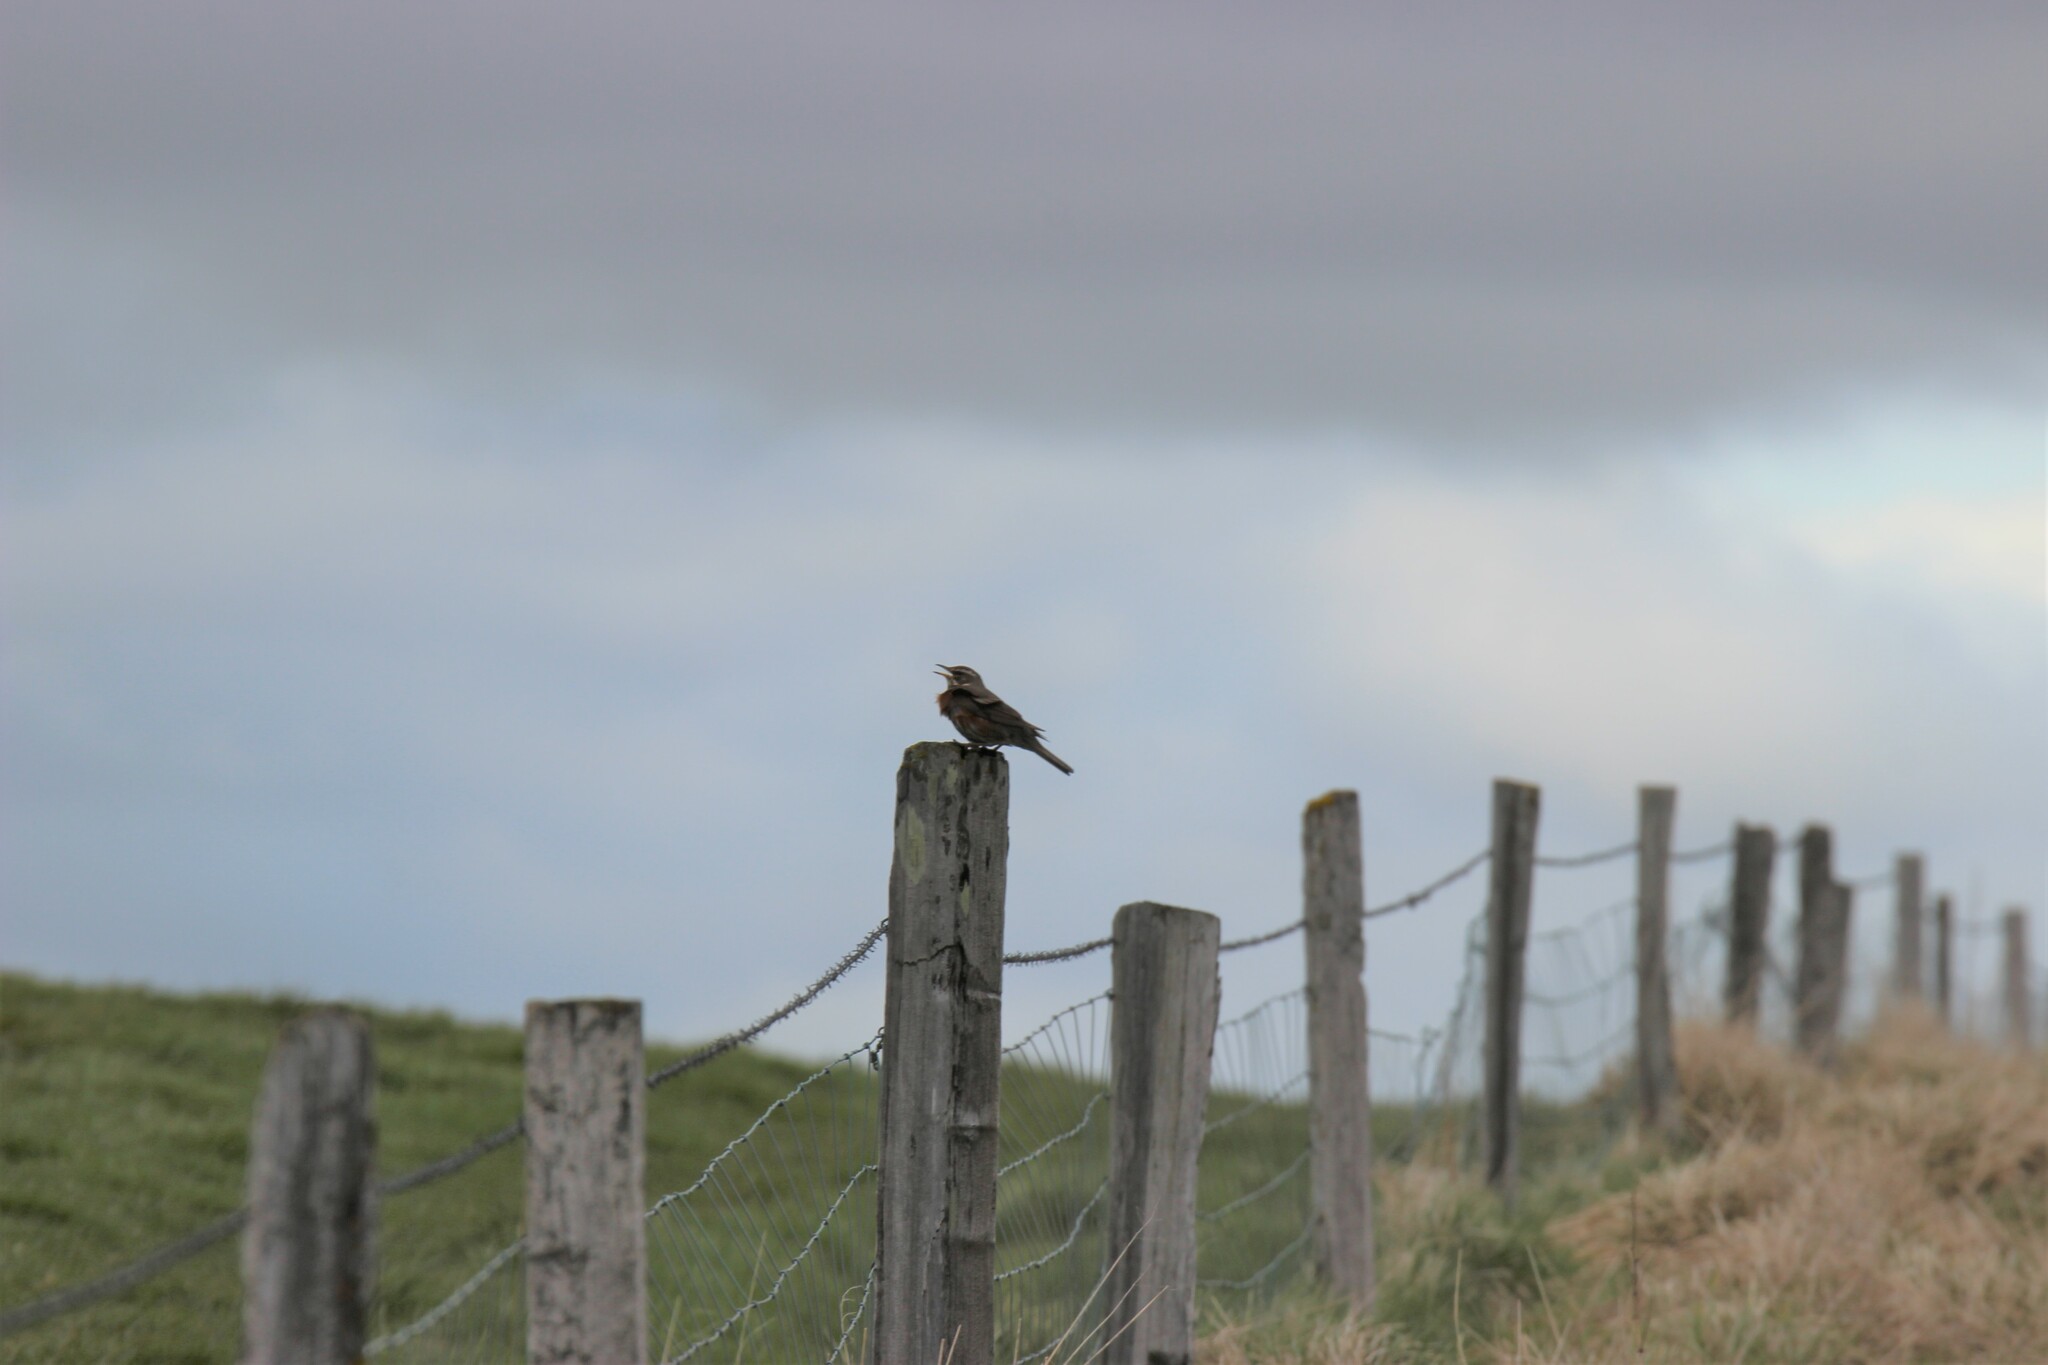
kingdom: Animalia
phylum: Chordata
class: Aves
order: Passeriformes
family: Turdidae
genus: Turdus
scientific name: Turdus iliacus
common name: Redwing
